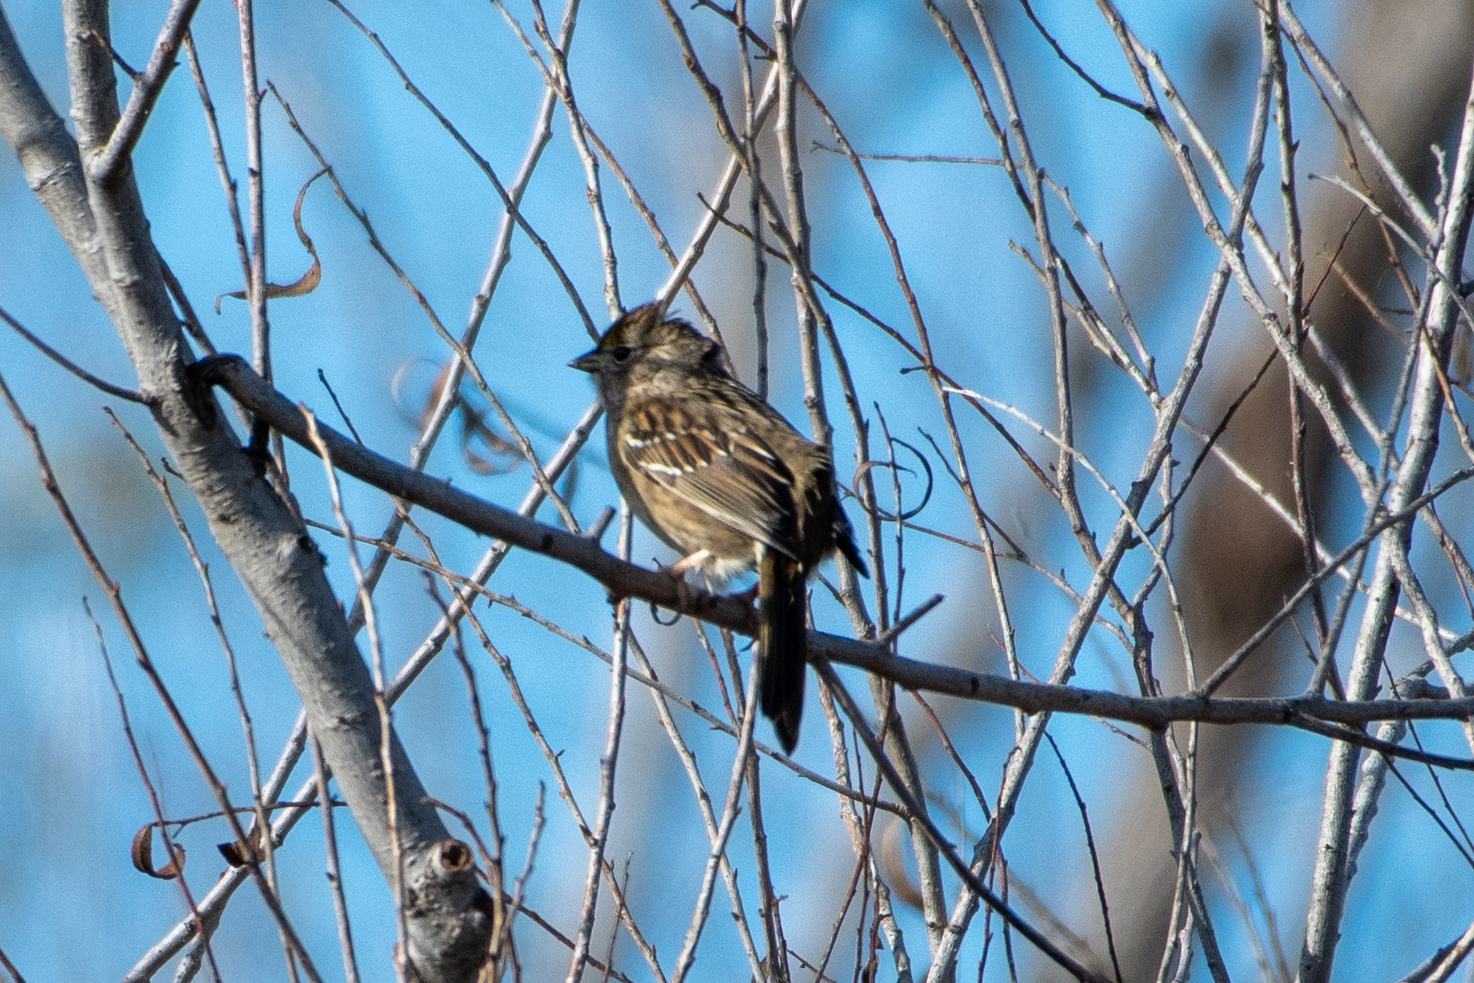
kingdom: Animalia
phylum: Chordata
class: Aves
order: Passeriformes
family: Passerellidae
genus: Zonotrichia
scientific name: Zonotrichia atricapilla
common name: Golden-crowned sparrow
